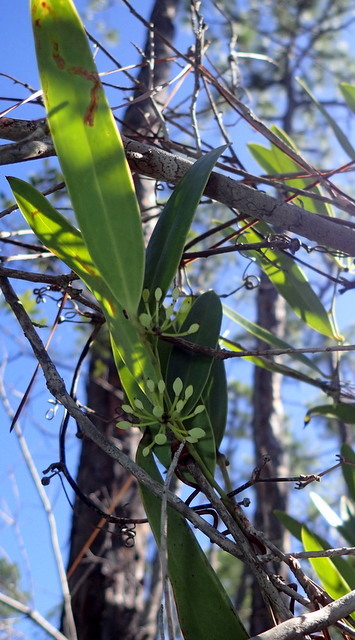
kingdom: Plantae
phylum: Tracheophyta
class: Liliopsida
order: Liliales
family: Smilacaceae
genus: Smilax
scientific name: Smilax laurifolia
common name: Bamboovine
